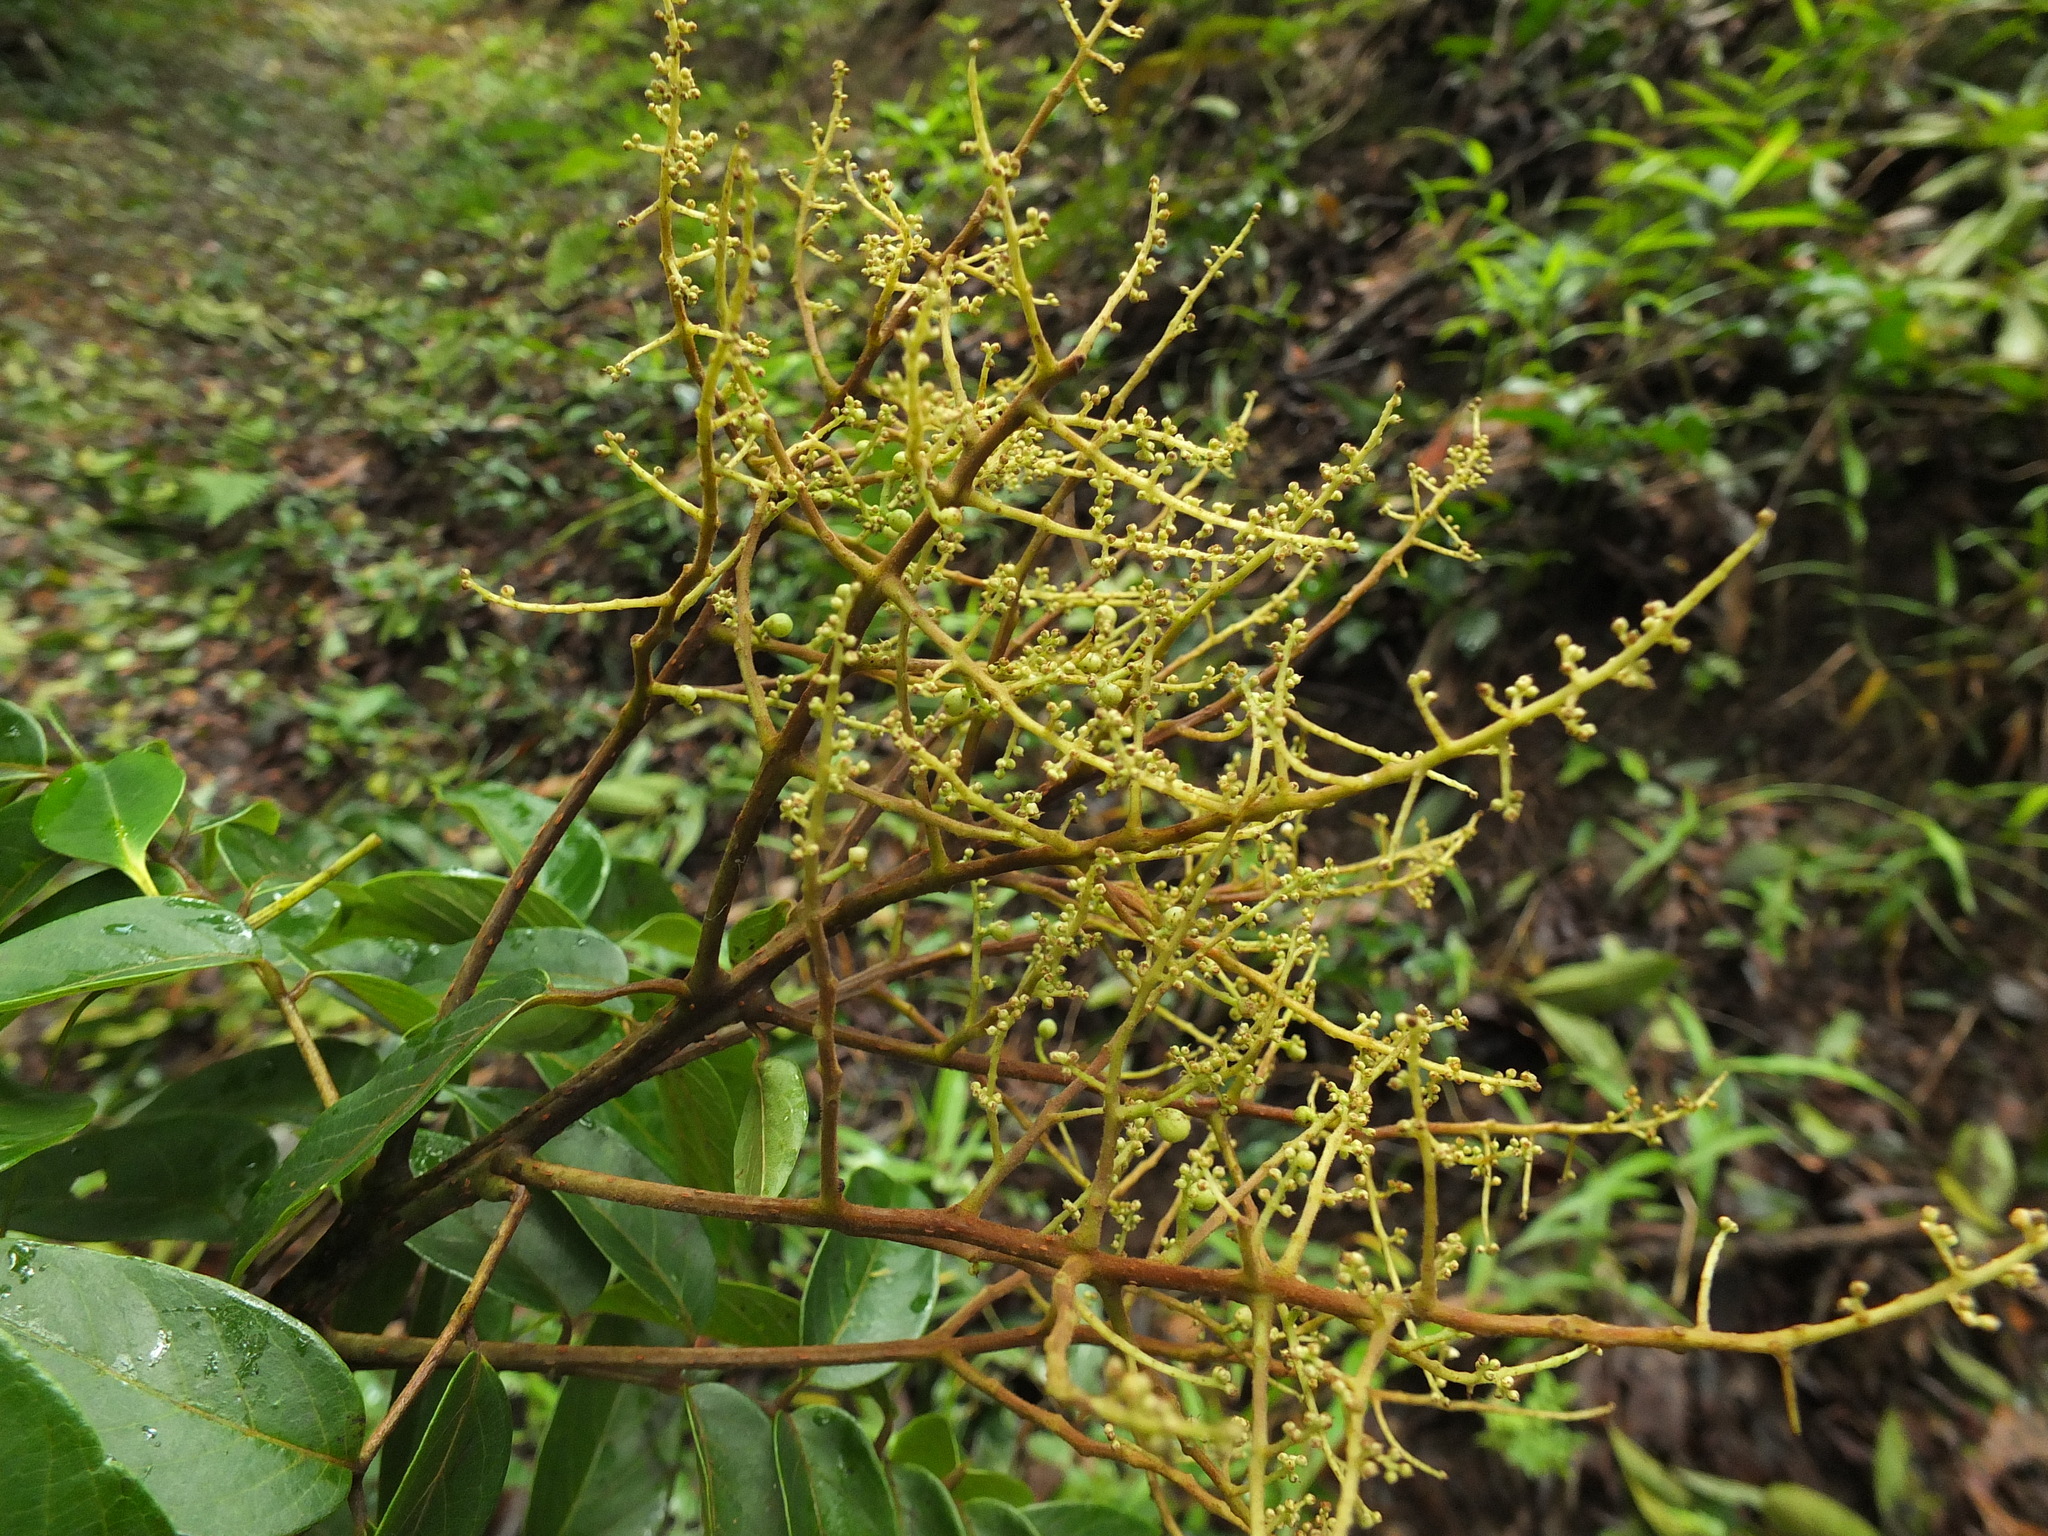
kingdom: Plantae
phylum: Tracheophyta
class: Magnoliopsida
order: Proteales
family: Sabiaceae
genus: Meliosma
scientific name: Meliosma pinnata
